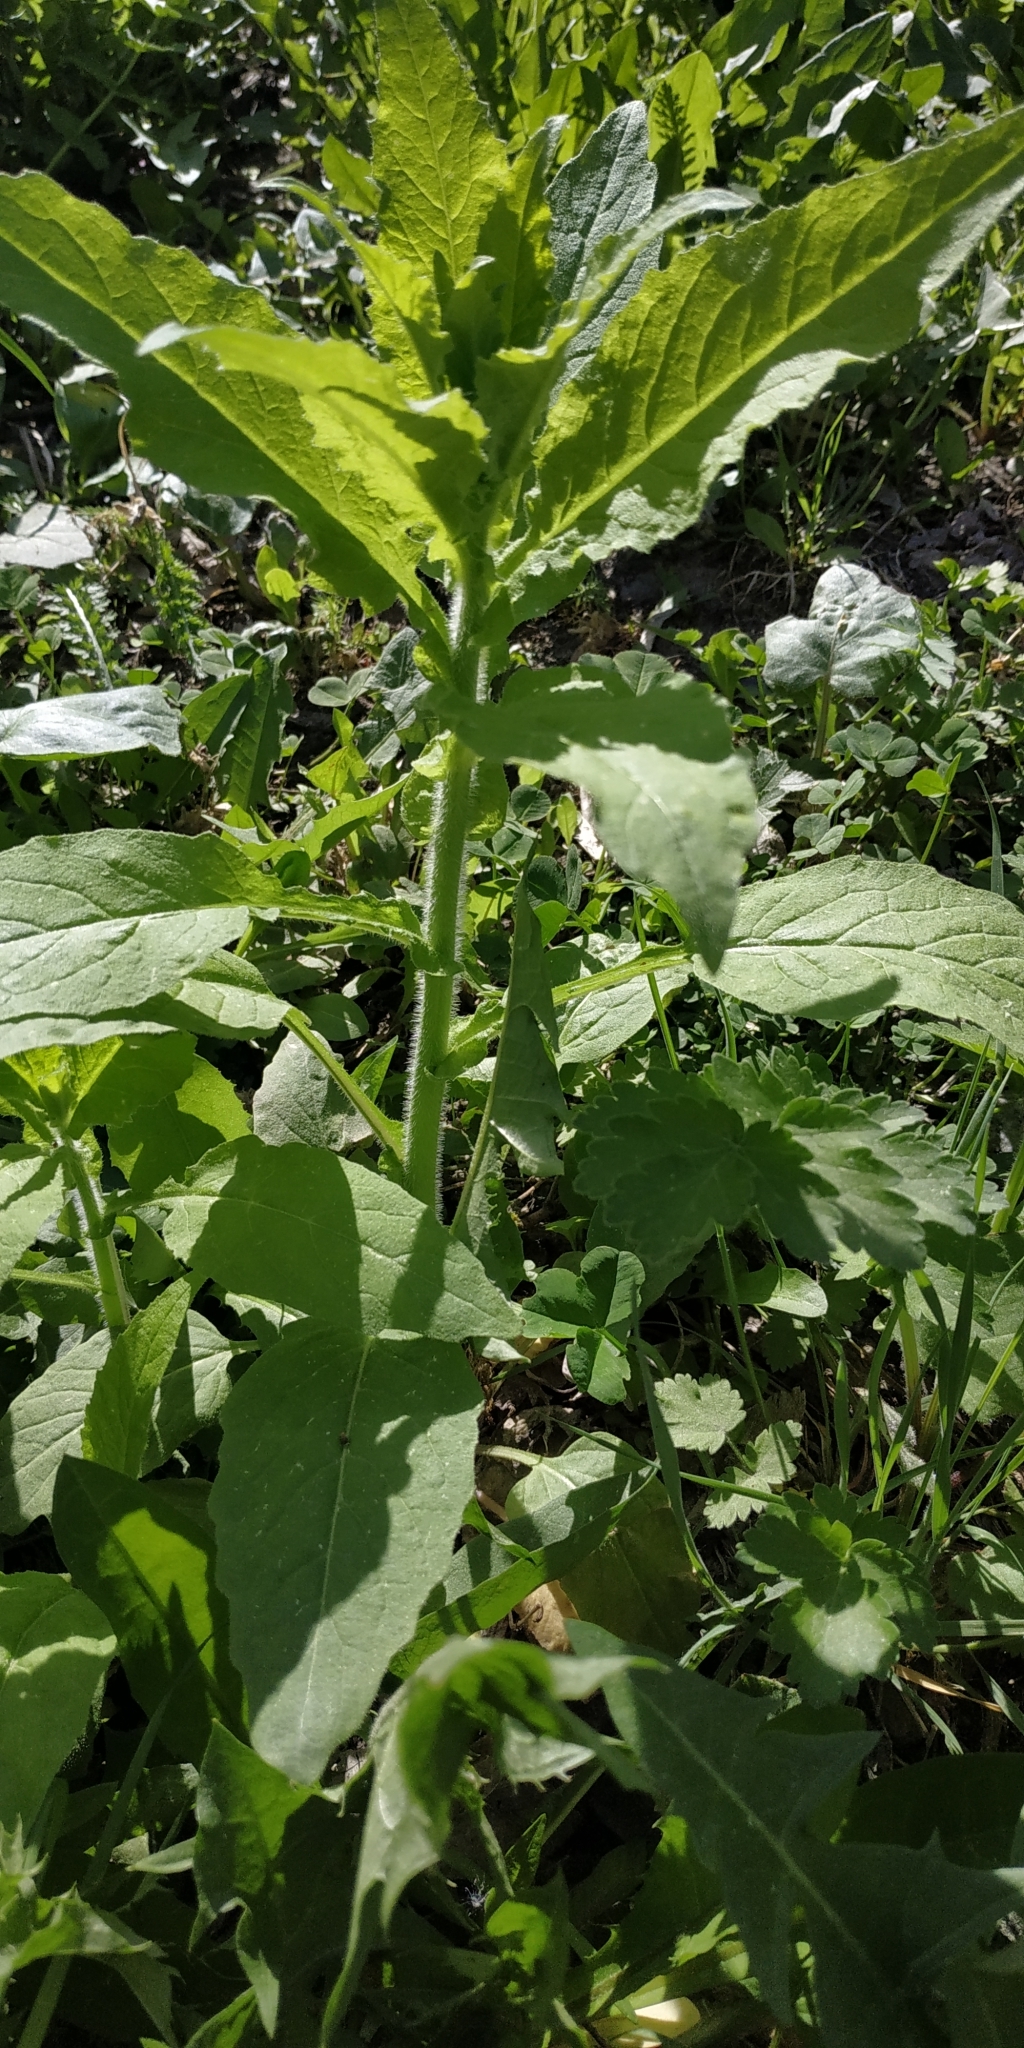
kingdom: Plantae
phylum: Tracheophyta
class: Magnoliopsida
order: Brassicales
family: Brassicaceae
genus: Catolobus
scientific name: Catolobus pendulus
